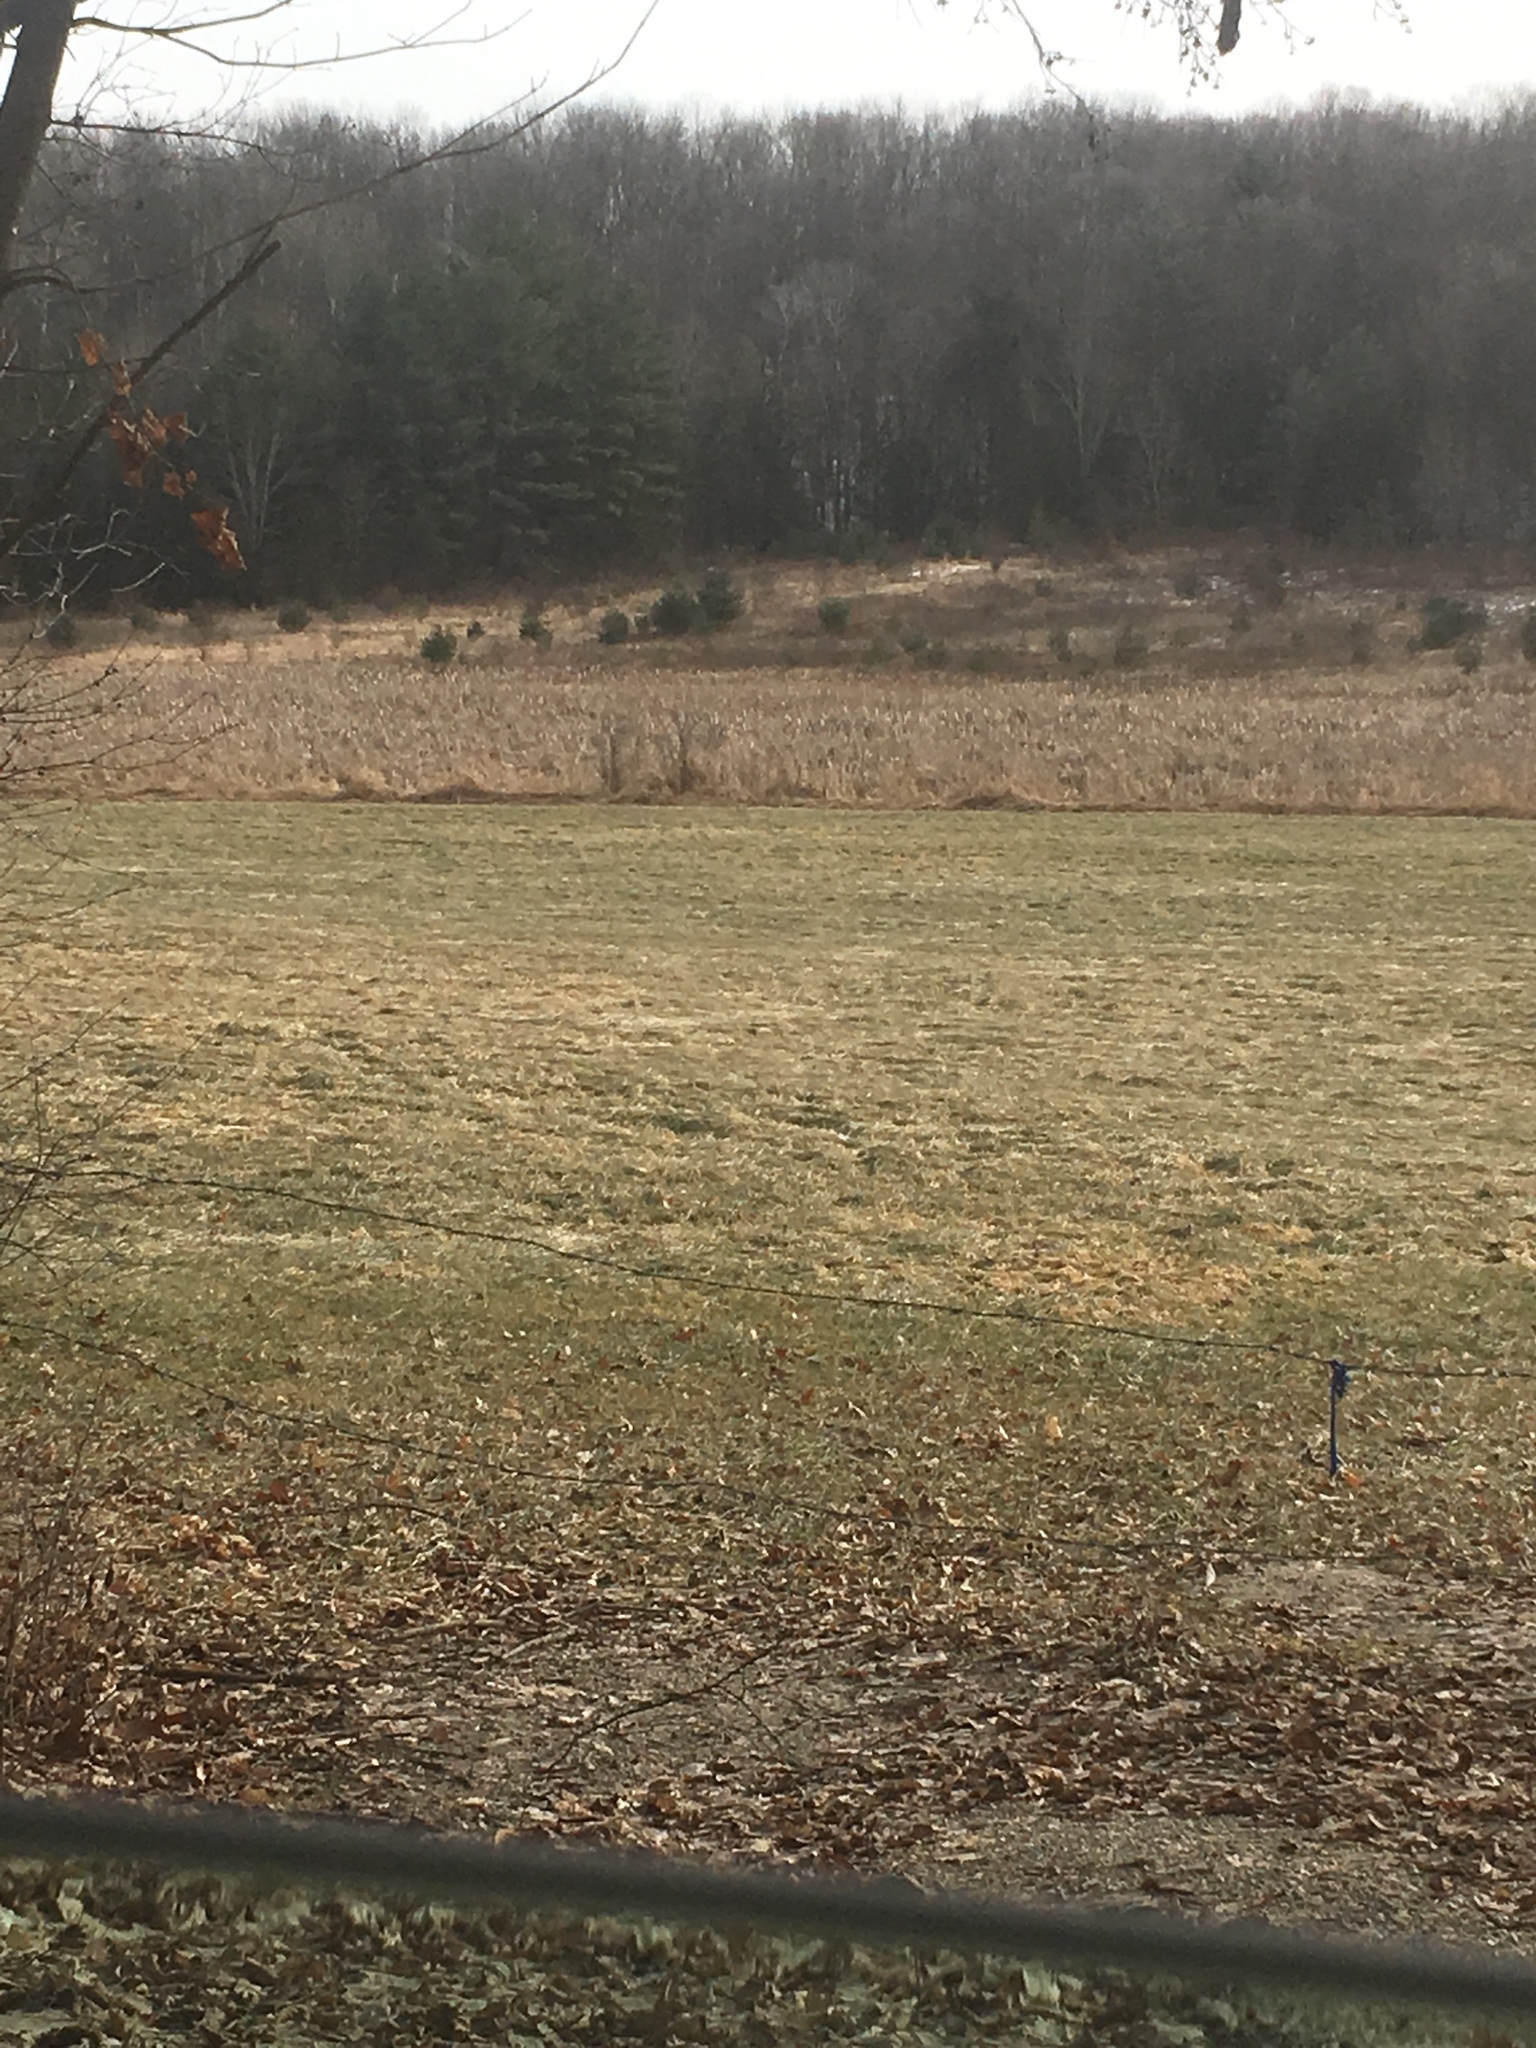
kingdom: Plantae
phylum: Tracheophyta
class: Liliopsida
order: Poales
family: Typhaceae
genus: Typha
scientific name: Typha
